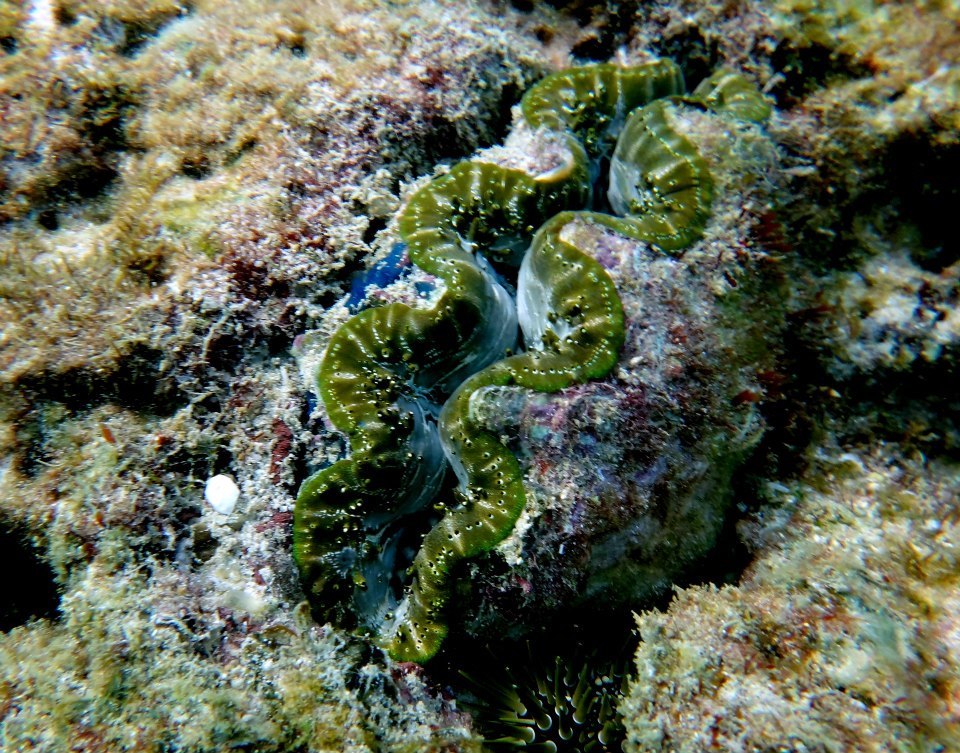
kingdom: Animalia
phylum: Mollusca
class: Bivalvia
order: Cardiida
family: Cardiidae
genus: Tridacna
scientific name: Tridacna maxima
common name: Small giant clam
